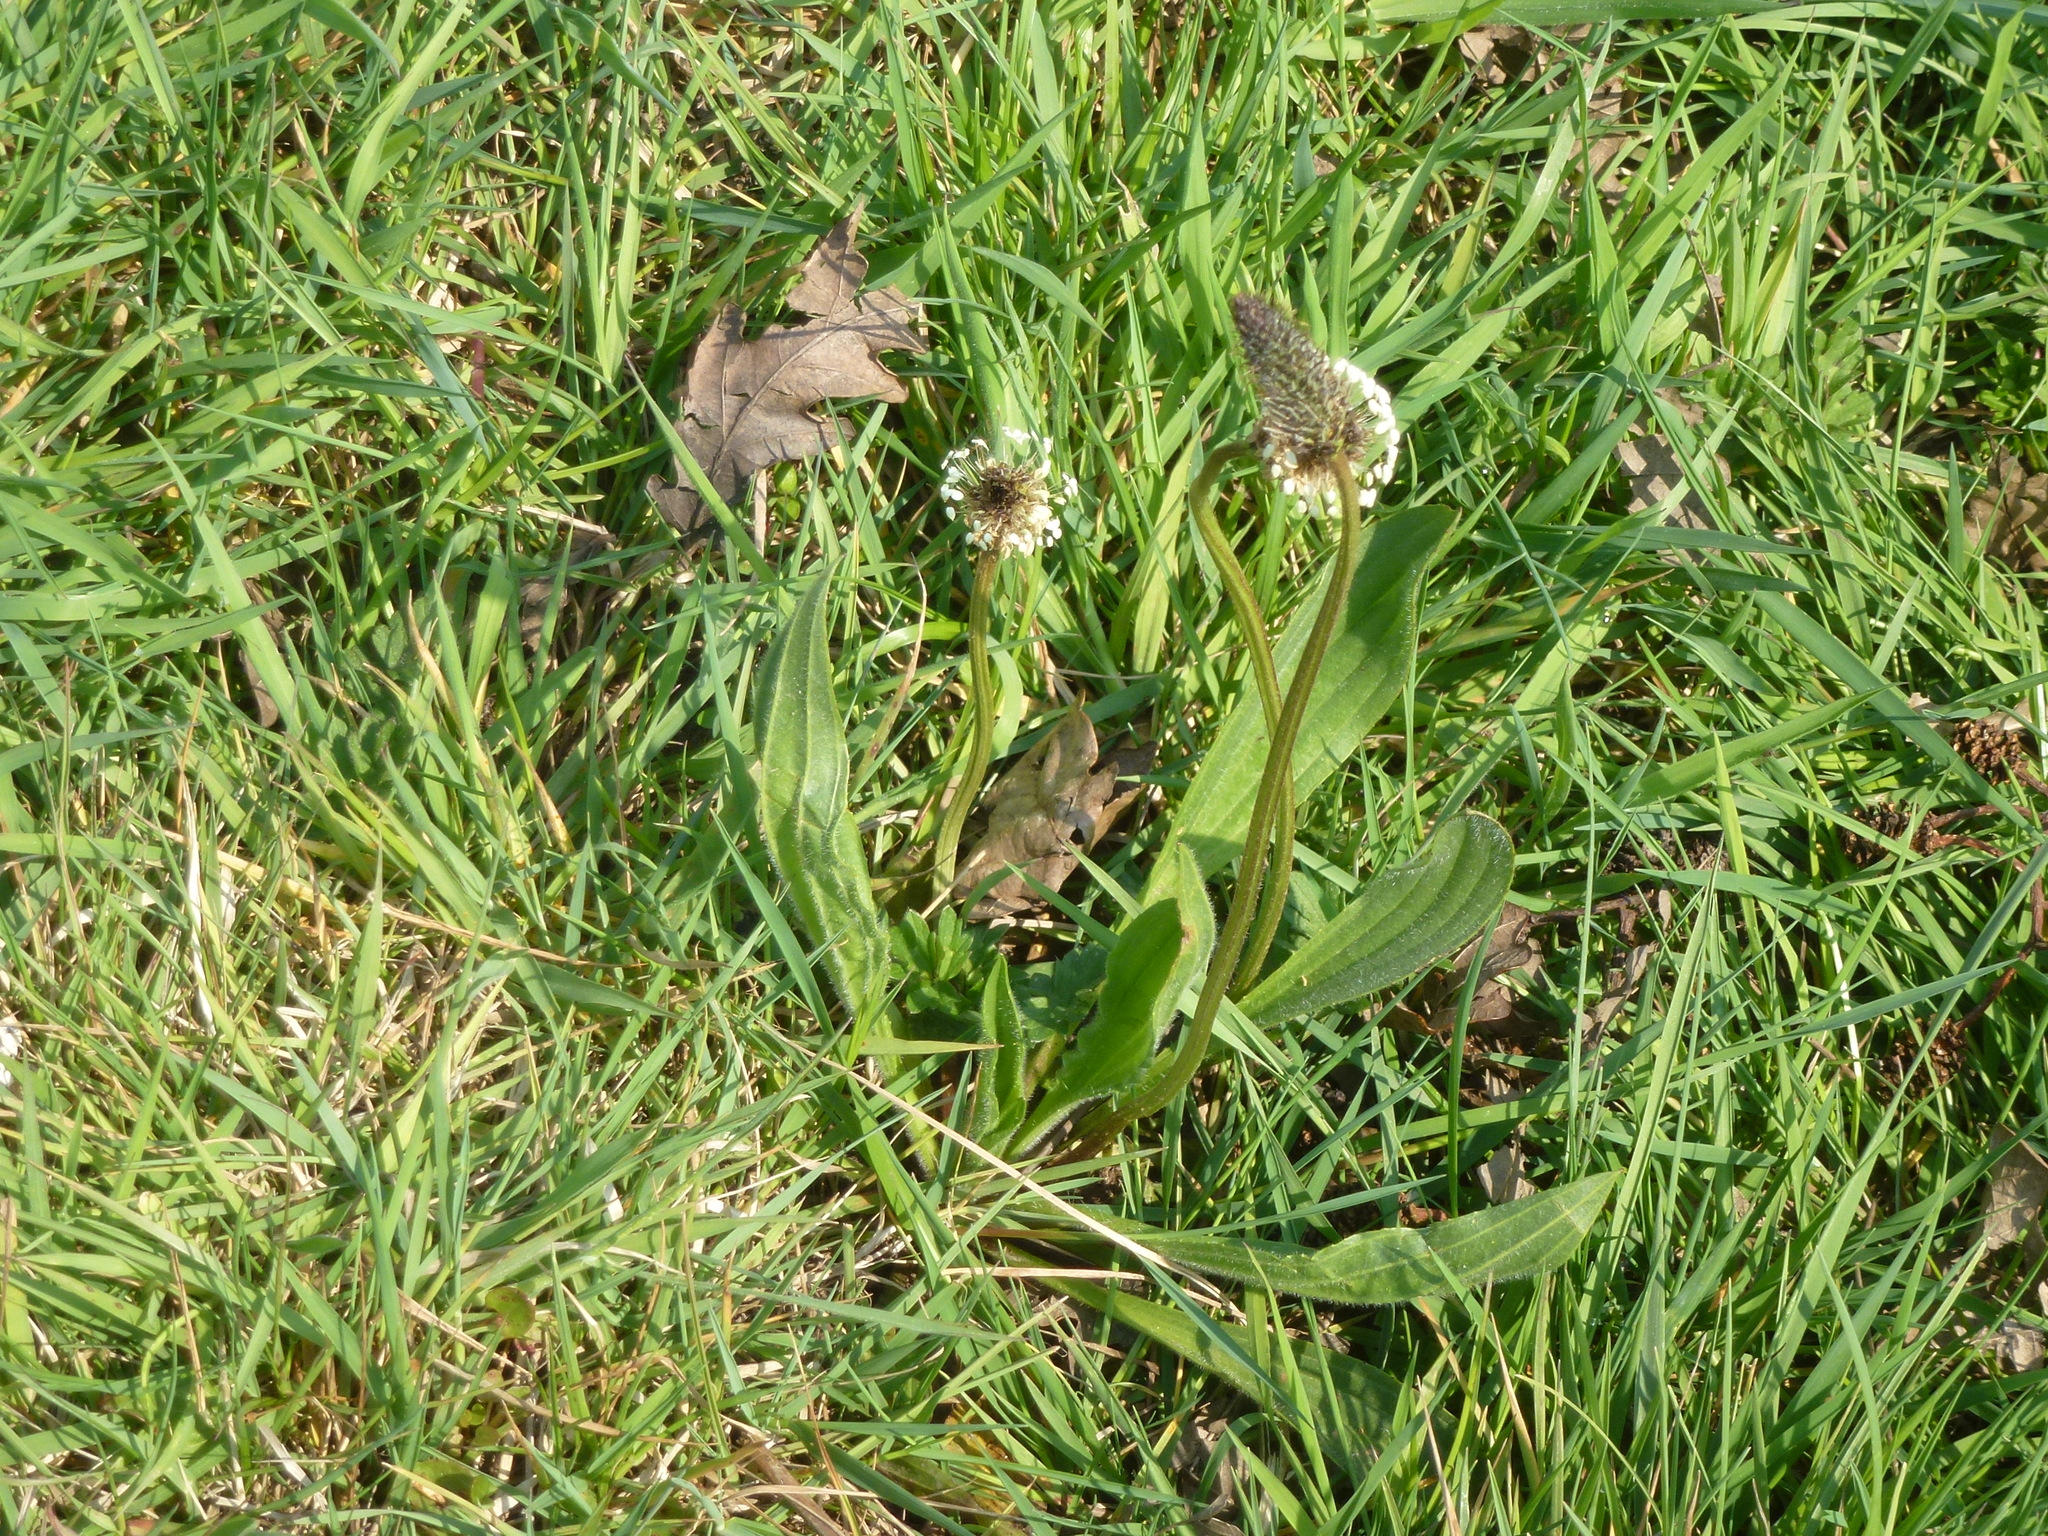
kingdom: Plantae
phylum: Tracheophyta
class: Magnoliopsida
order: Lamiales
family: Plantaginaceae
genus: Plantago
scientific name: Plantago lanceolata
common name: Ribwort plantain
